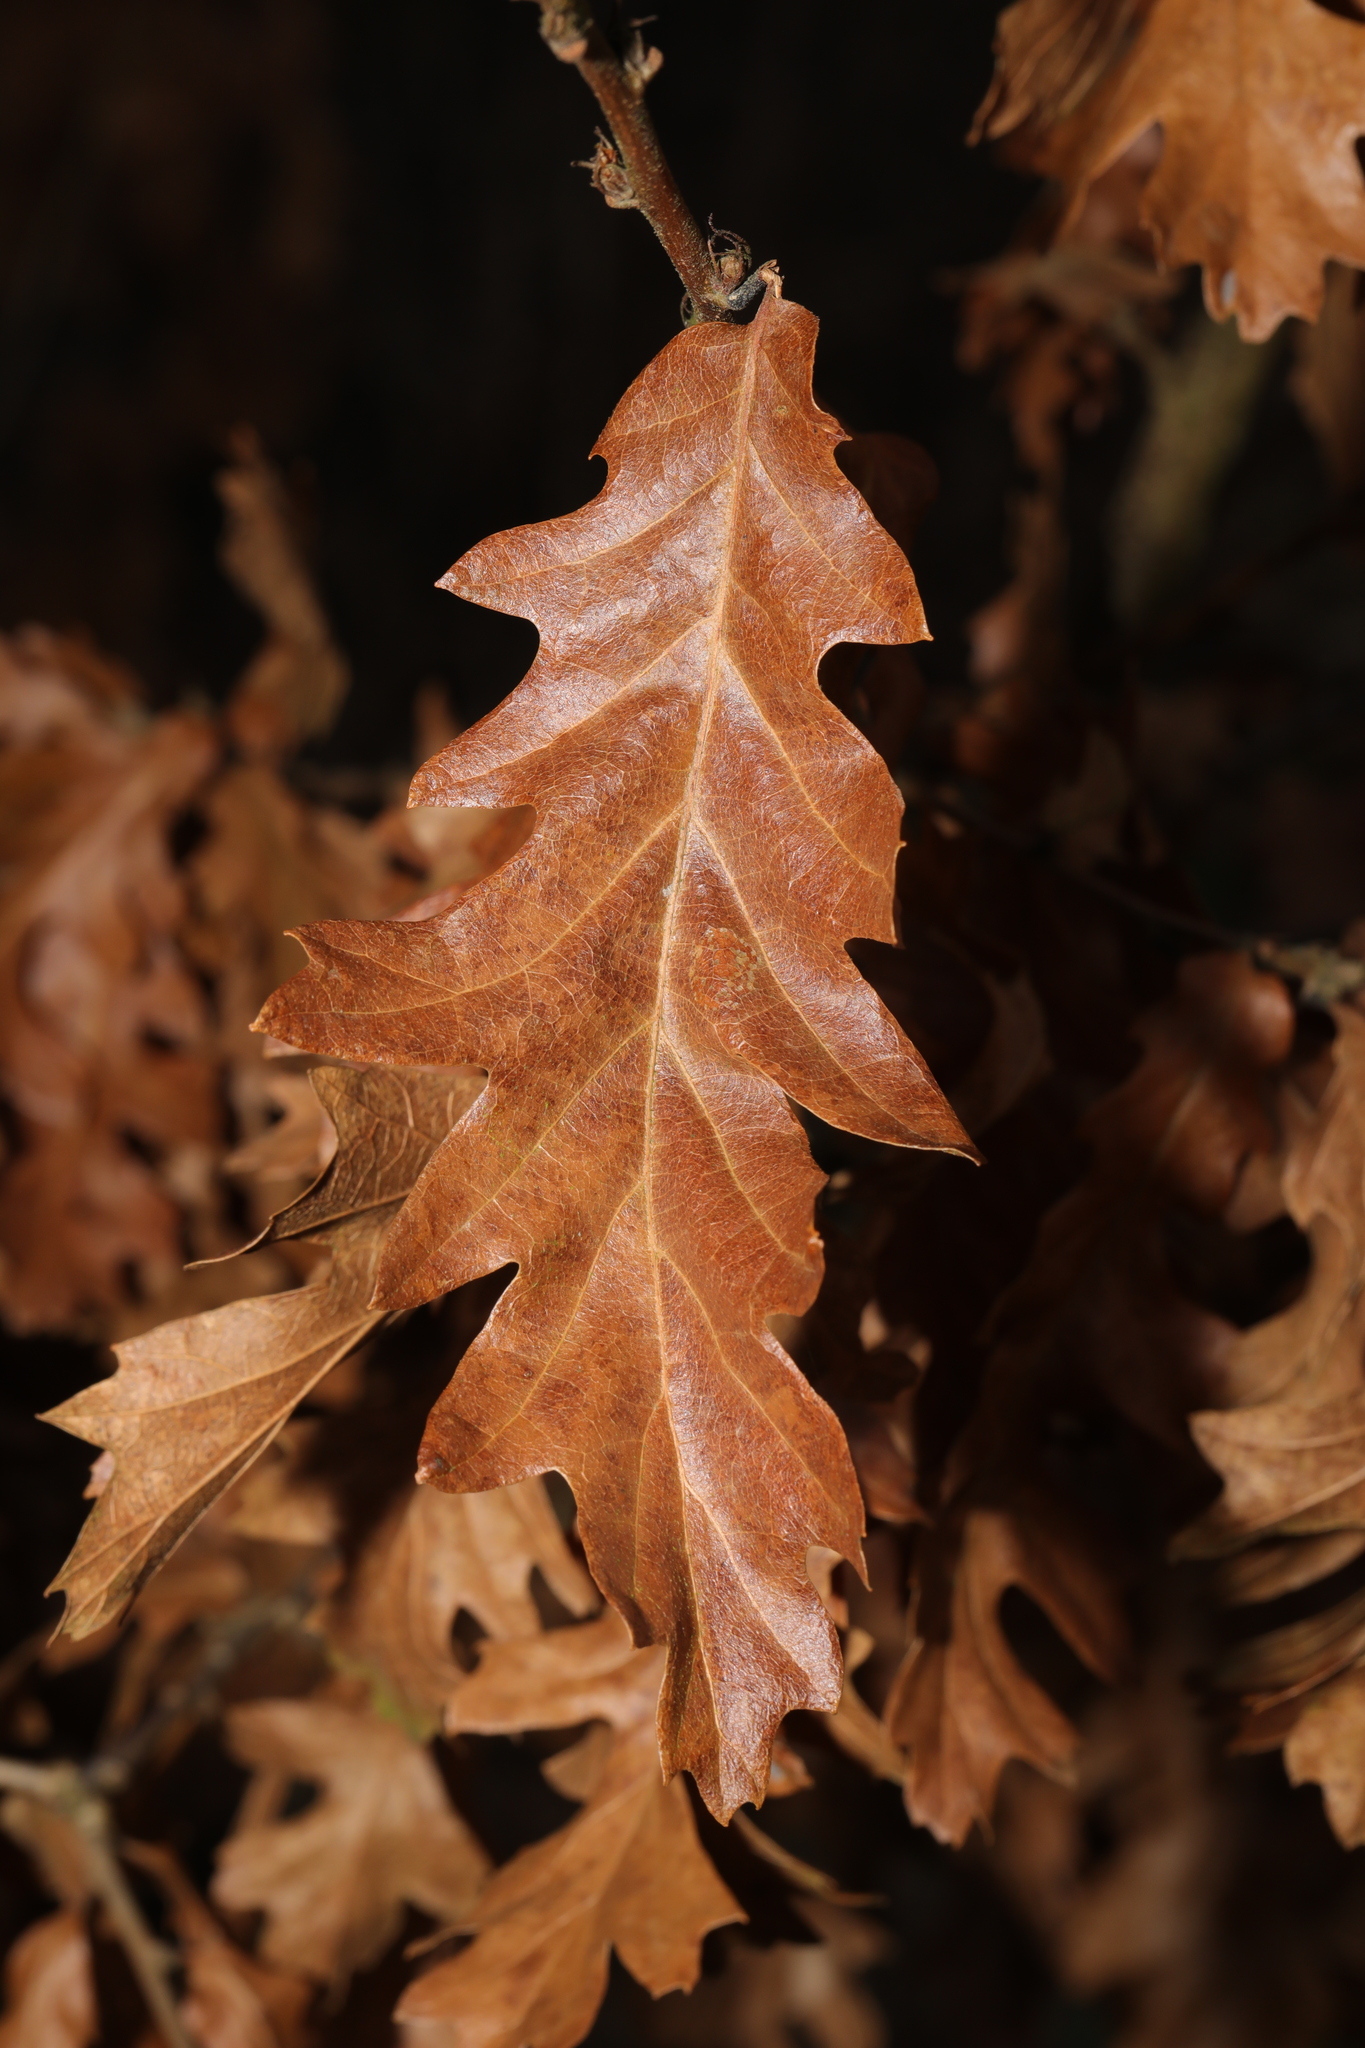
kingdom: Plantae
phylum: Tracheophyta
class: Magnoliopsida
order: Fagales
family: Fagaceae
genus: Quercus
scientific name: Quercus cerris
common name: Turkey oak
